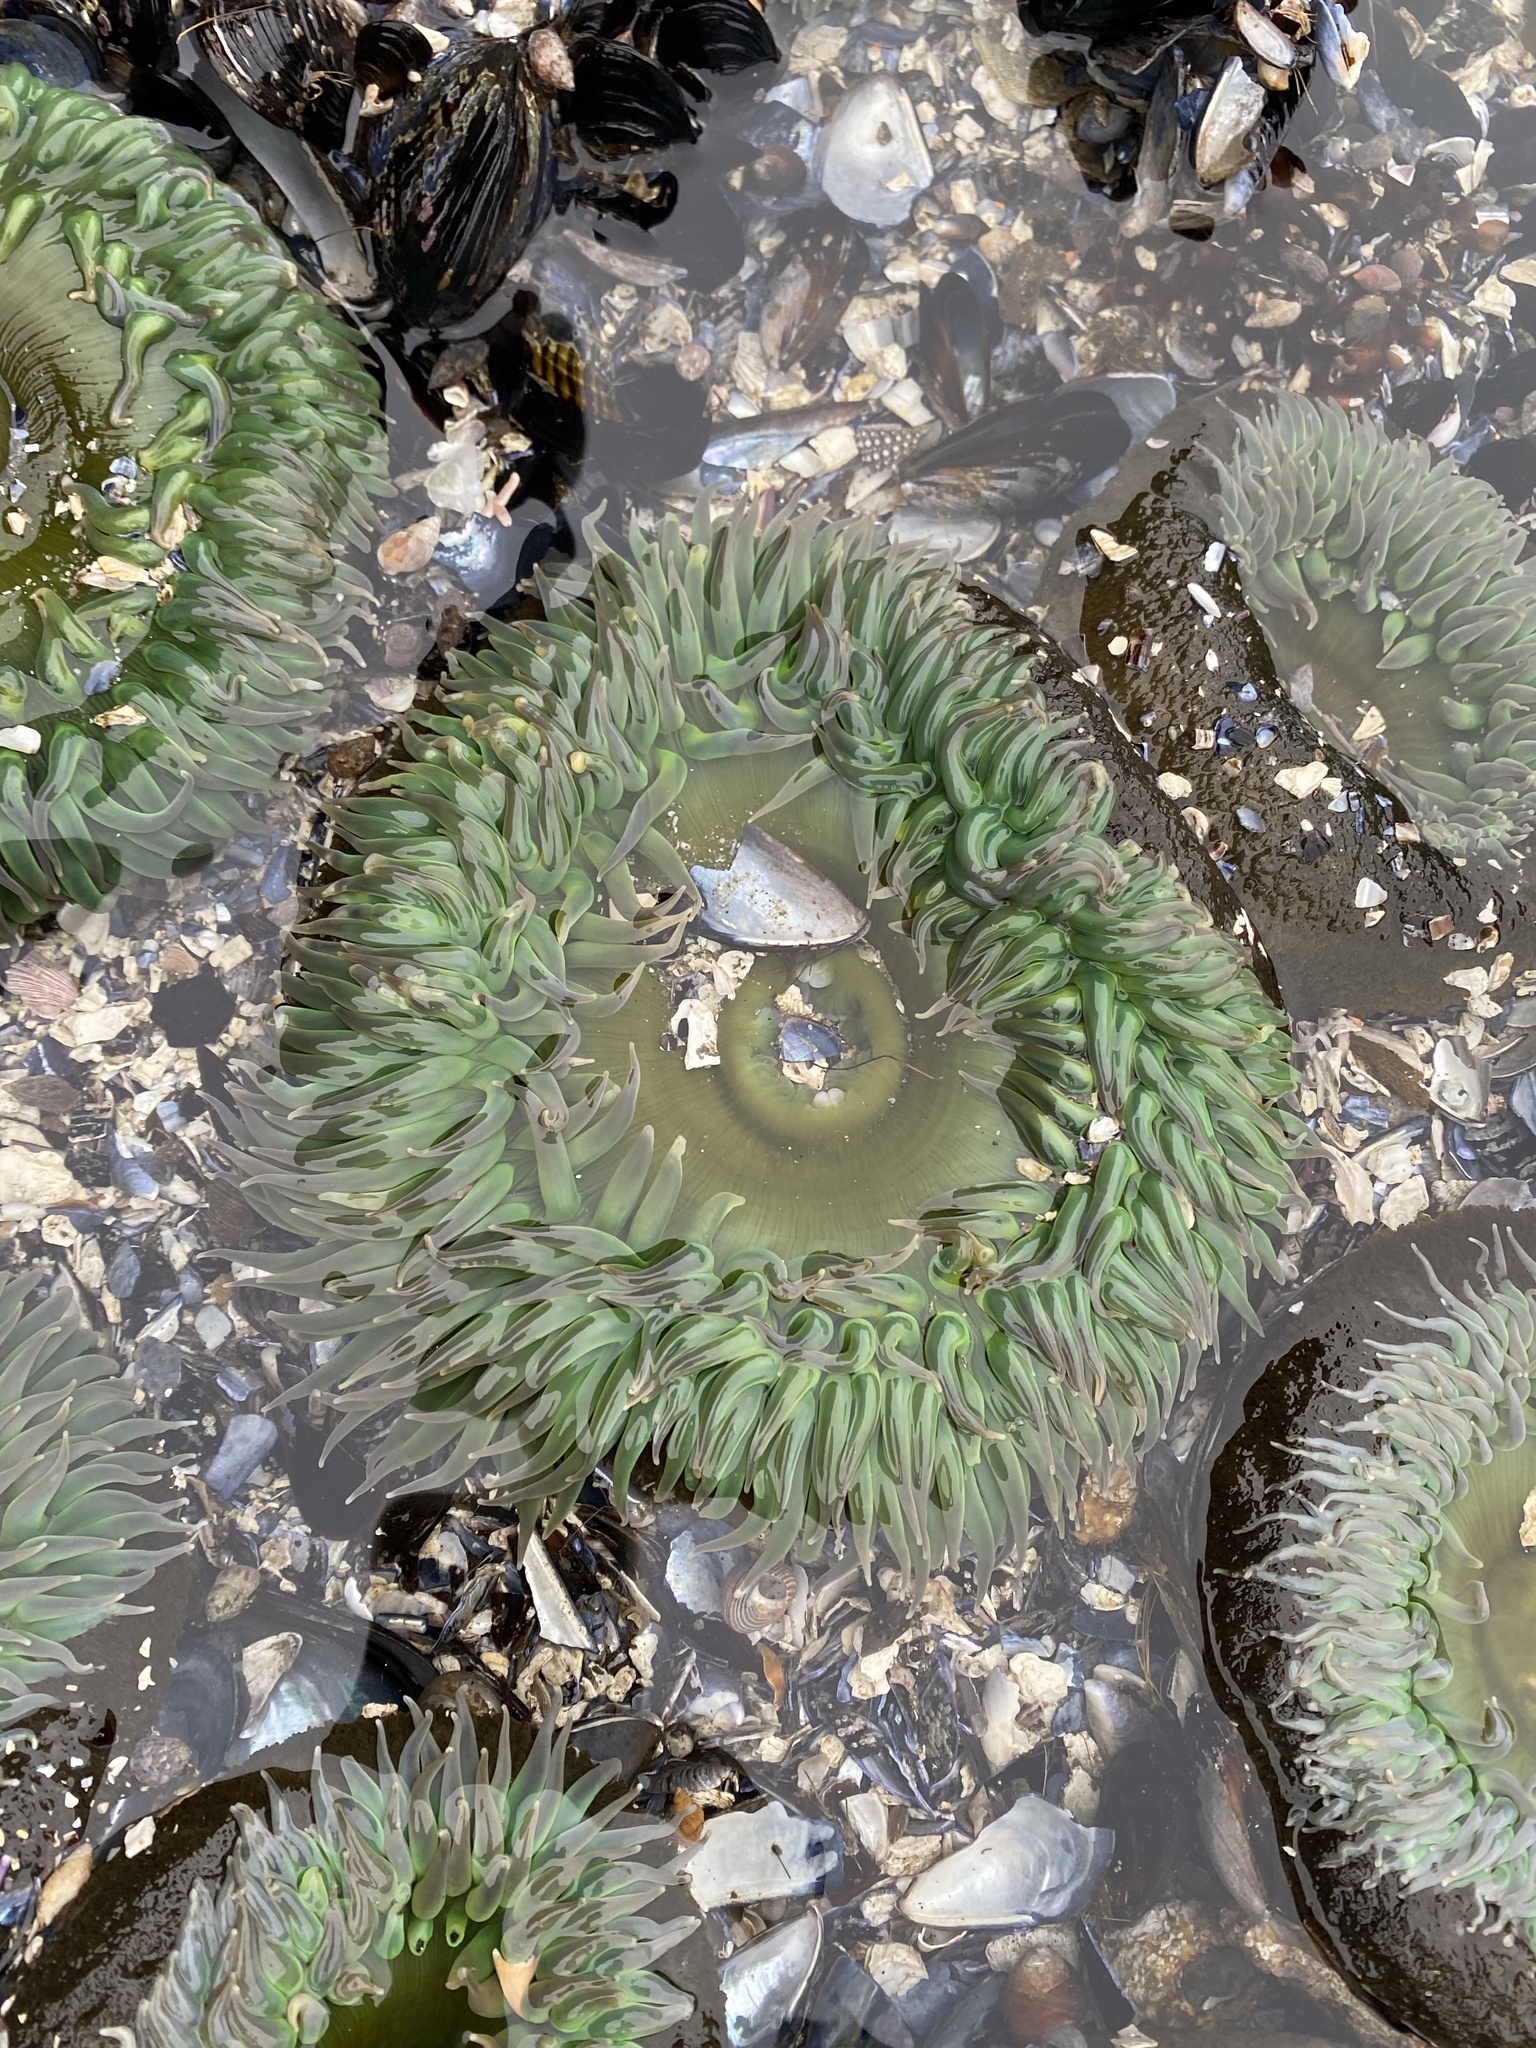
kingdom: Animalia
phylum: Cnidaria
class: Anthozoa
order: Actiniaria
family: Actiniidae
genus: Anthopleura
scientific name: Anthopleura xanthogrammica
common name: Giant green anemone
